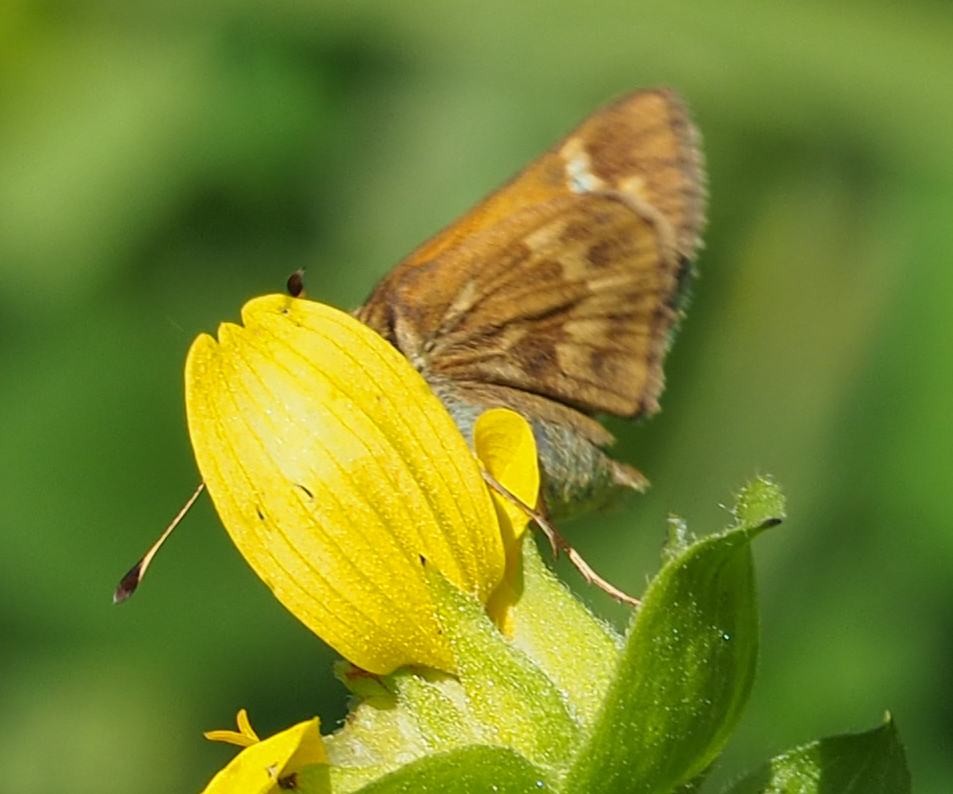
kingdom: Animalia
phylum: Arthropoda
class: Insecta
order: Lepidoptera
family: Hesperiidae
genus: Atalopedes
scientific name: Atalopedes
